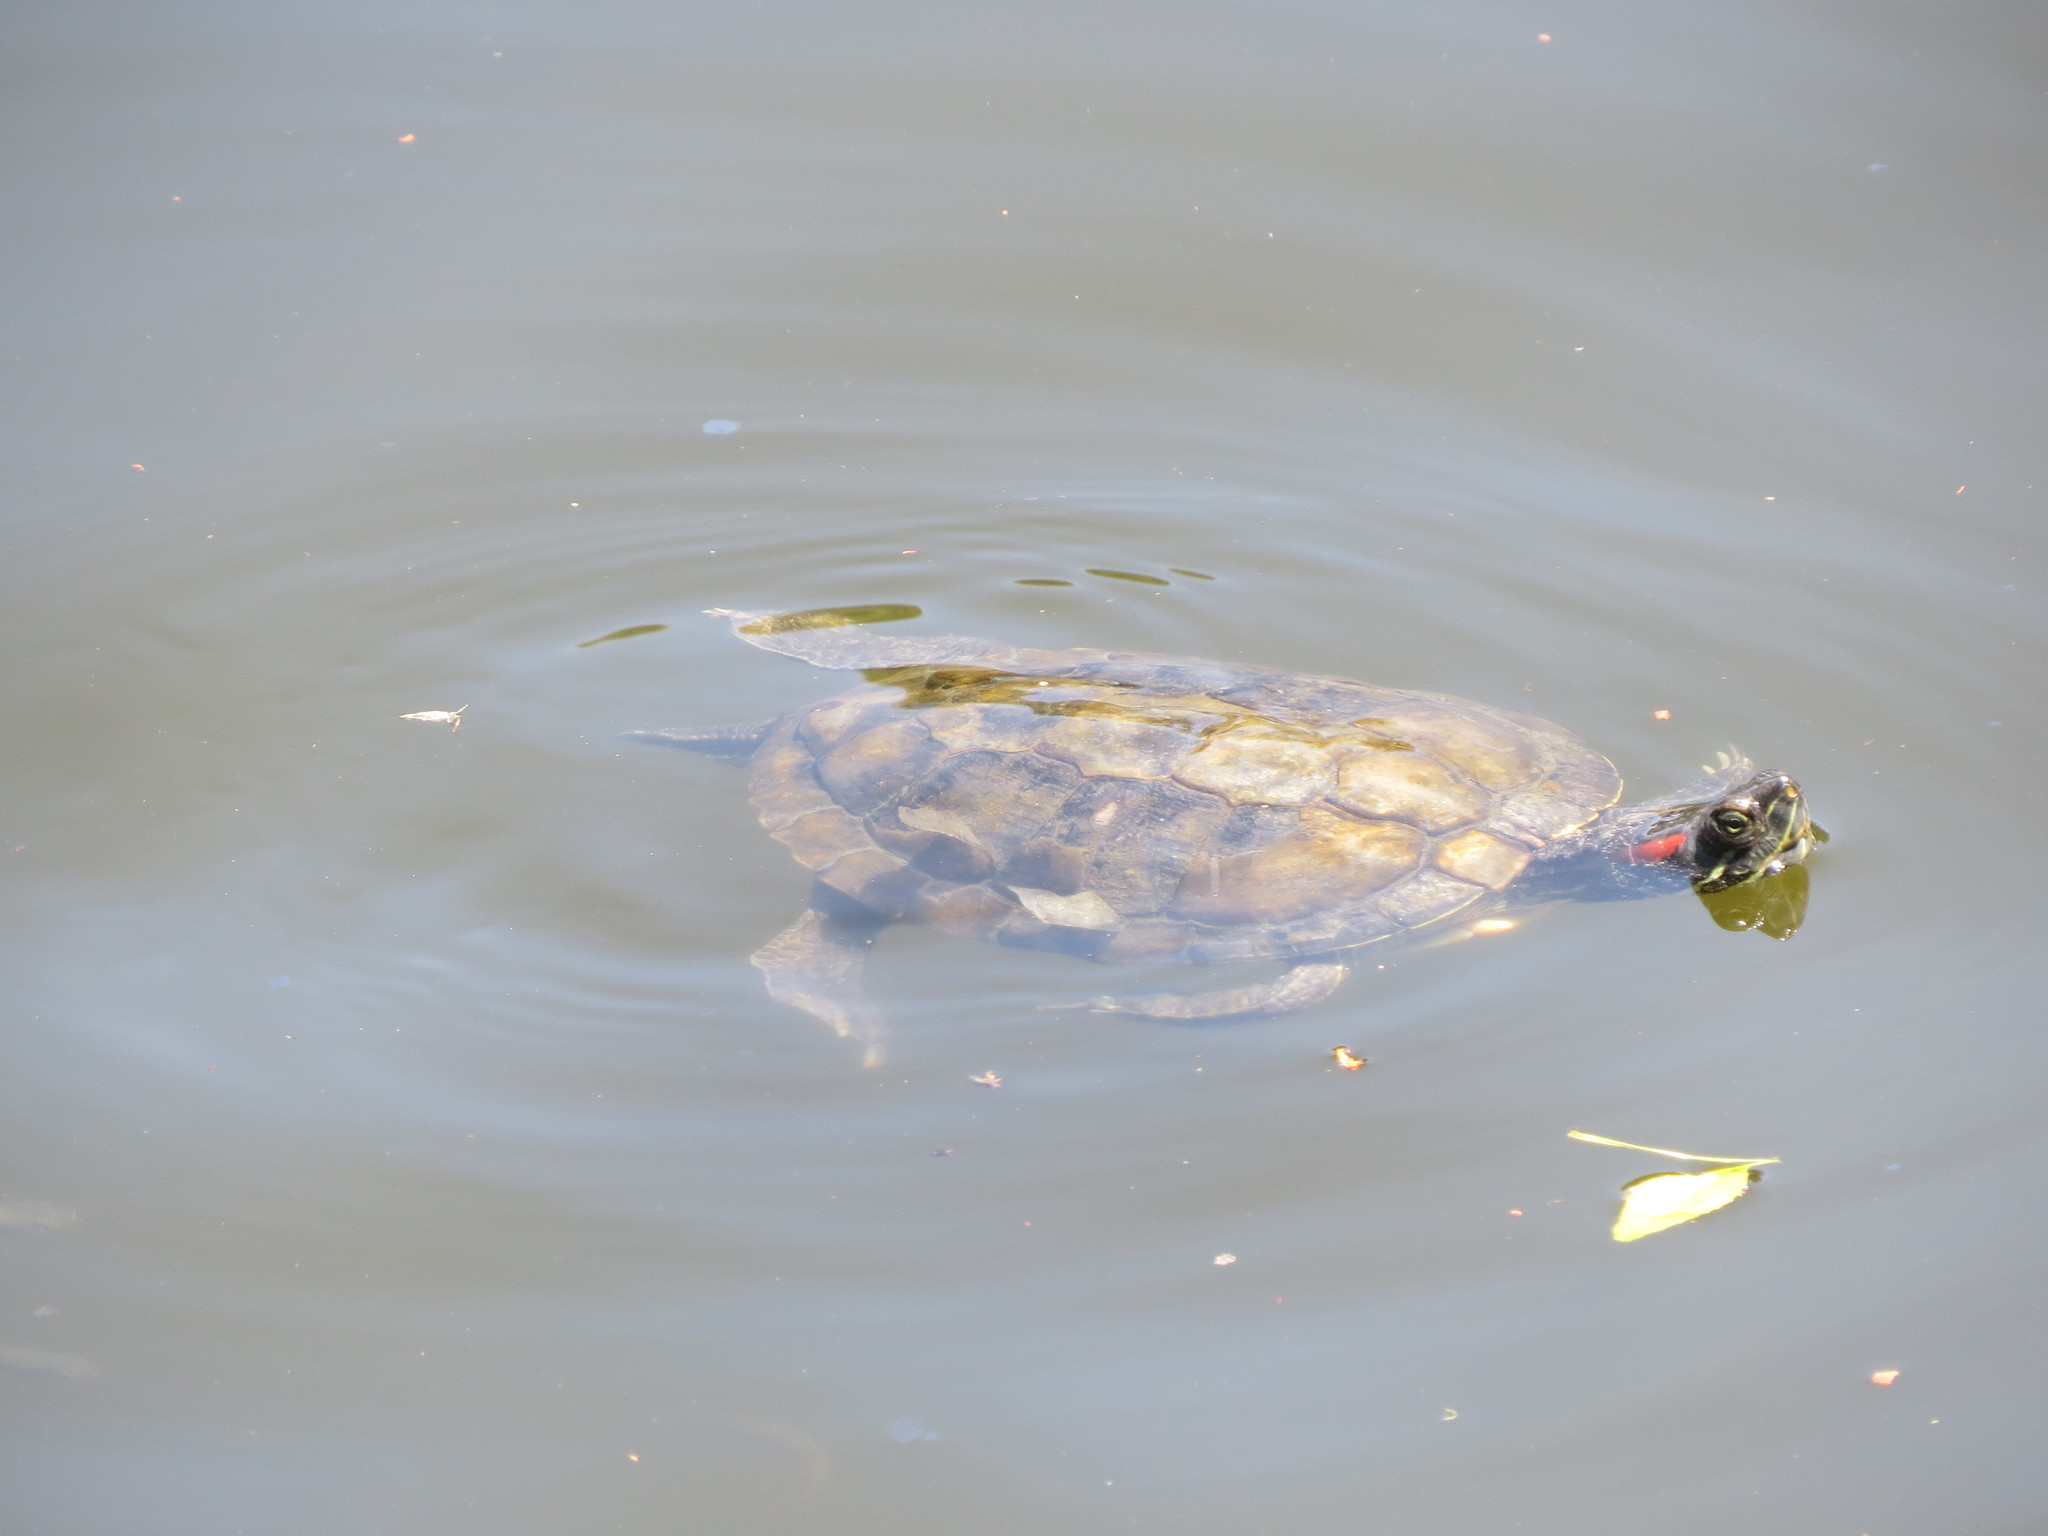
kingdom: Animalia
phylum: Chordata
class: Testudines
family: Emydidae
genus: Trachemys
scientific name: Trachemys scripta
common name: Slider
